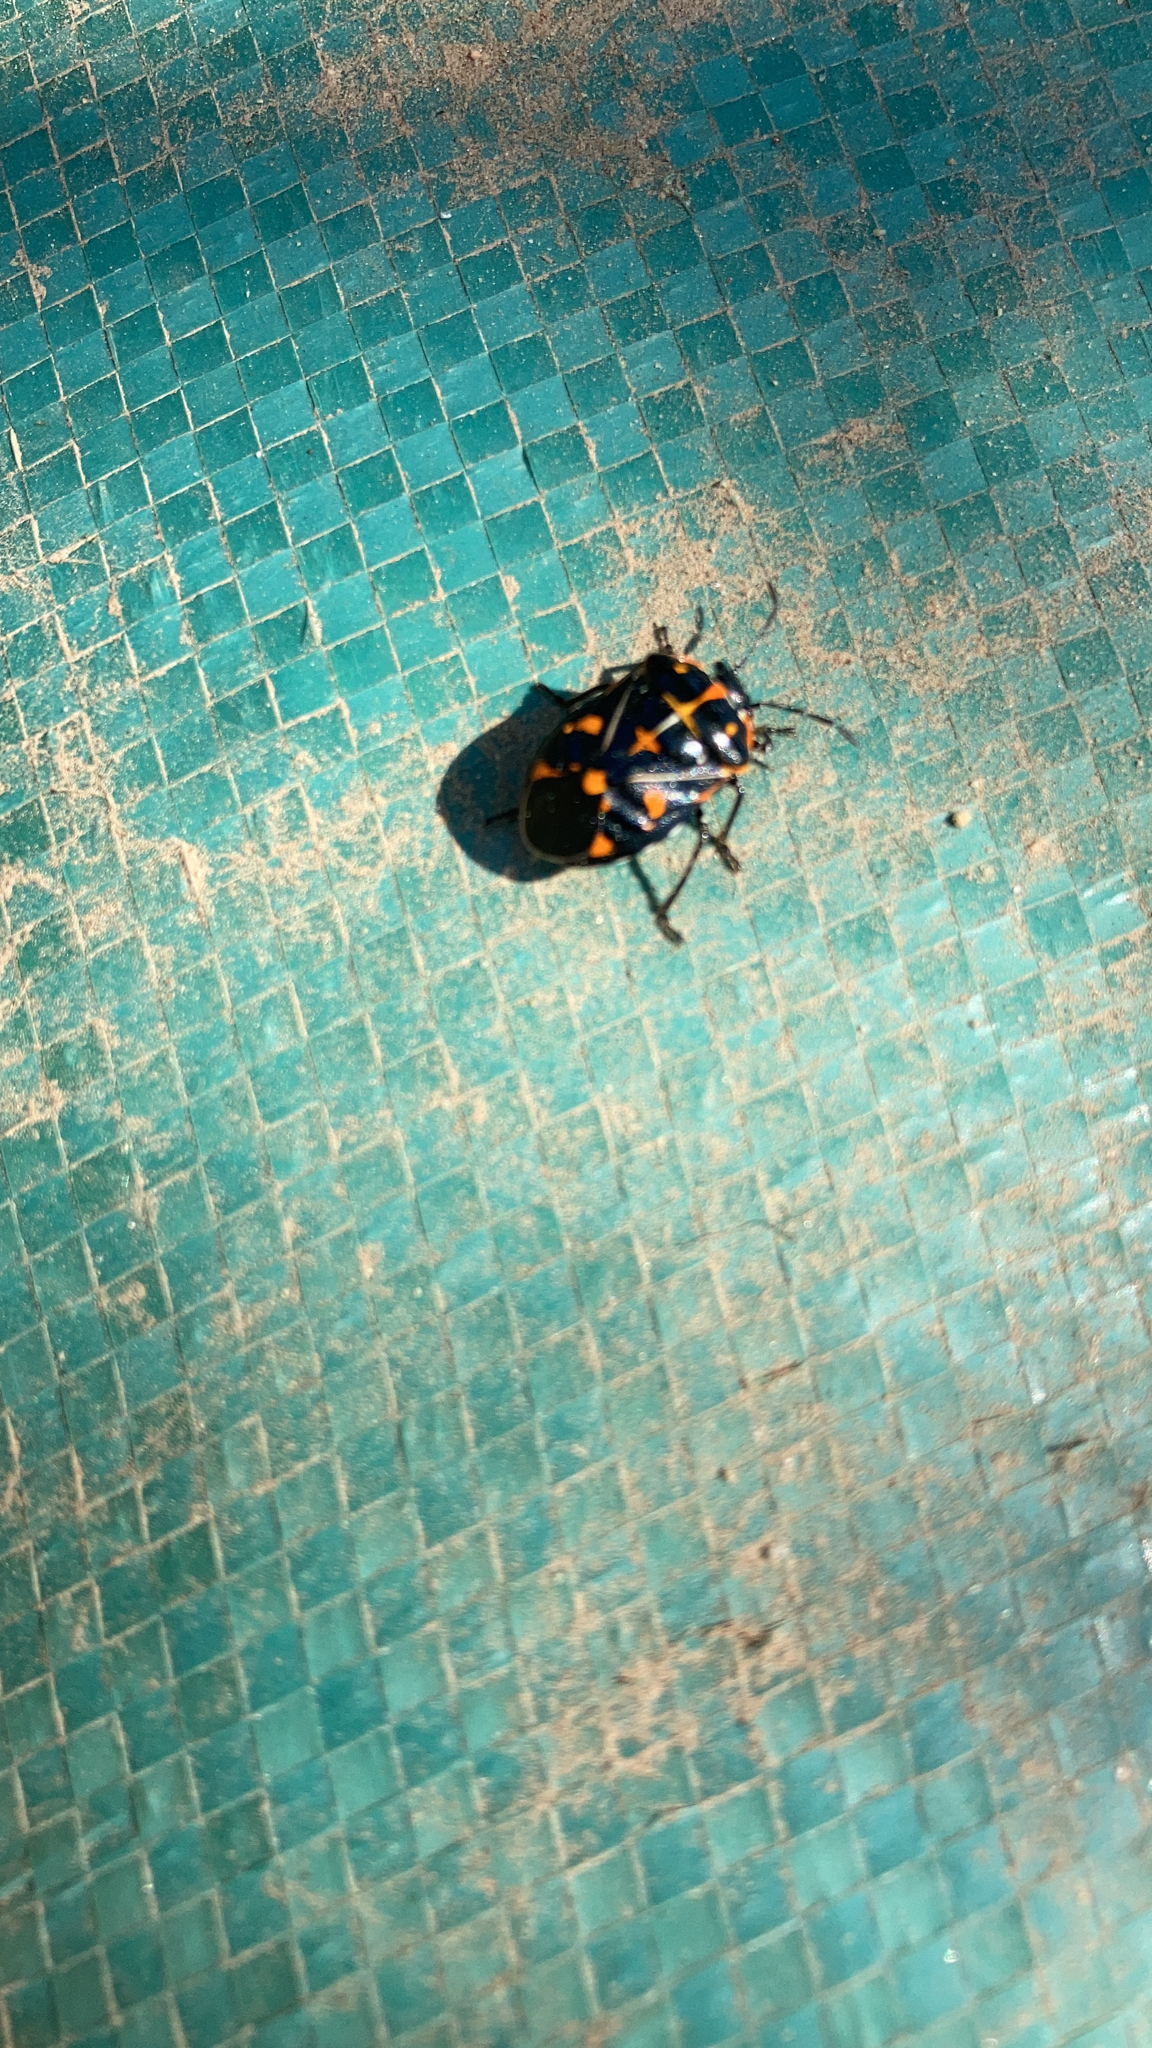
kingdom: Animalia
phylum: Arthropoda
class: Insecta
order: Hemiptera
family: Pentatomidae
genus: Murgantia
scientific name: Murgantia histrionica
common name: Harlequin bug
